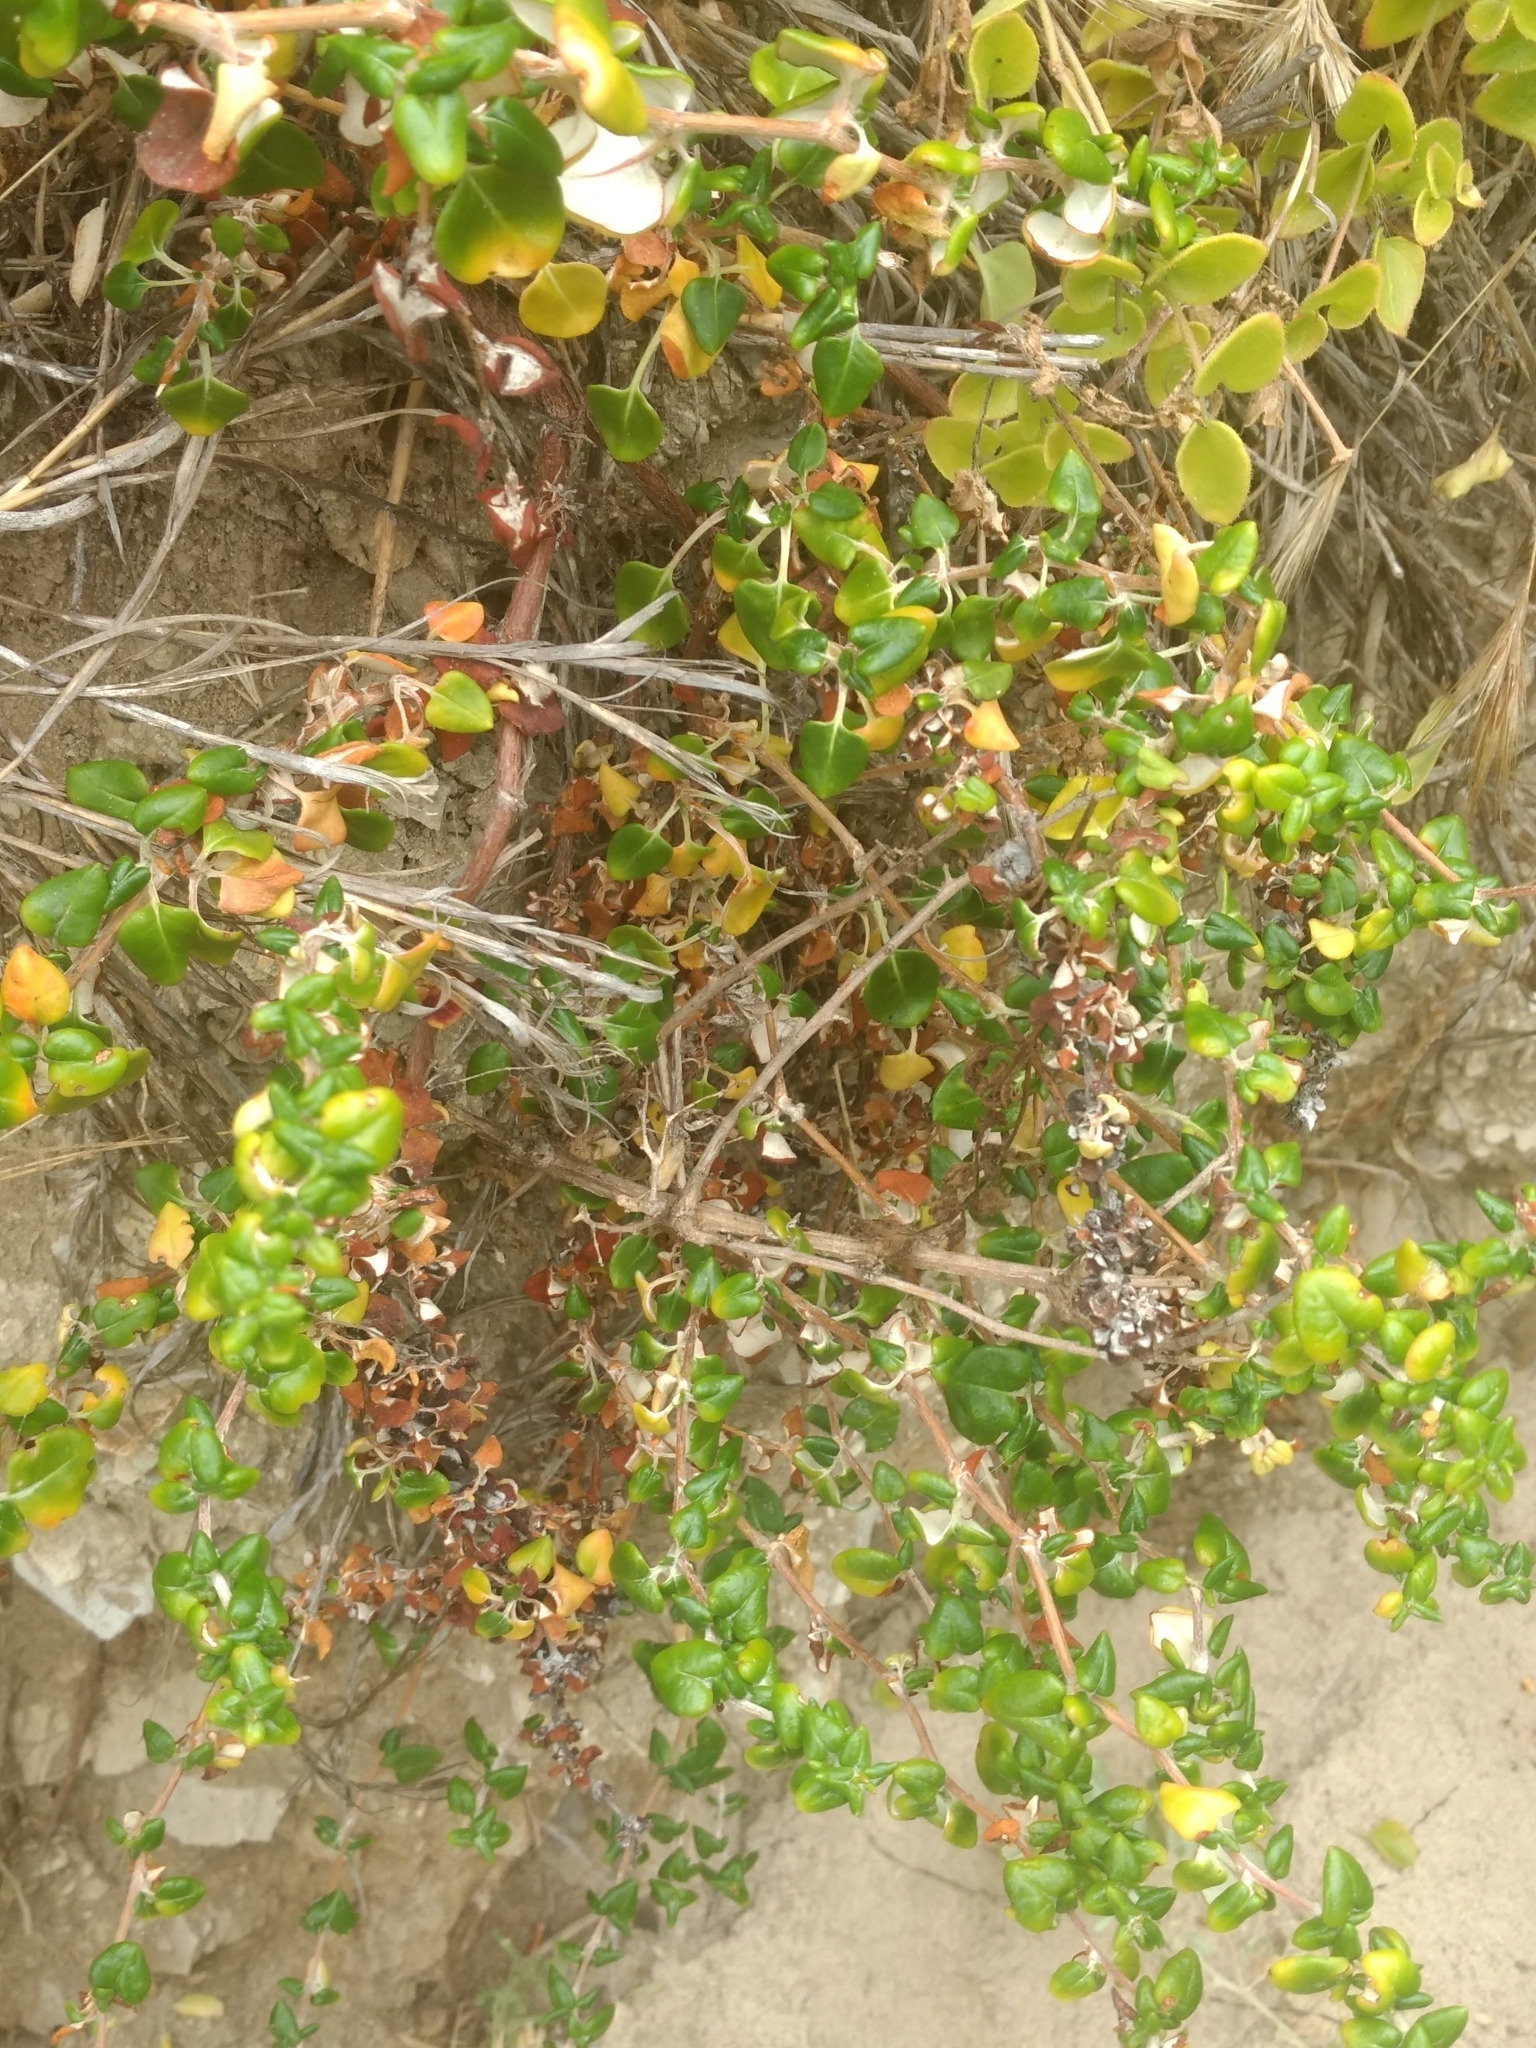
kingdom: Plantae
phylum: Tracheophyta
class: Magnoliopsida
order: Caryophyllales
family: Polygonaceae
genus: Eriogonum
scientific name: Eriogonum parvifolium
